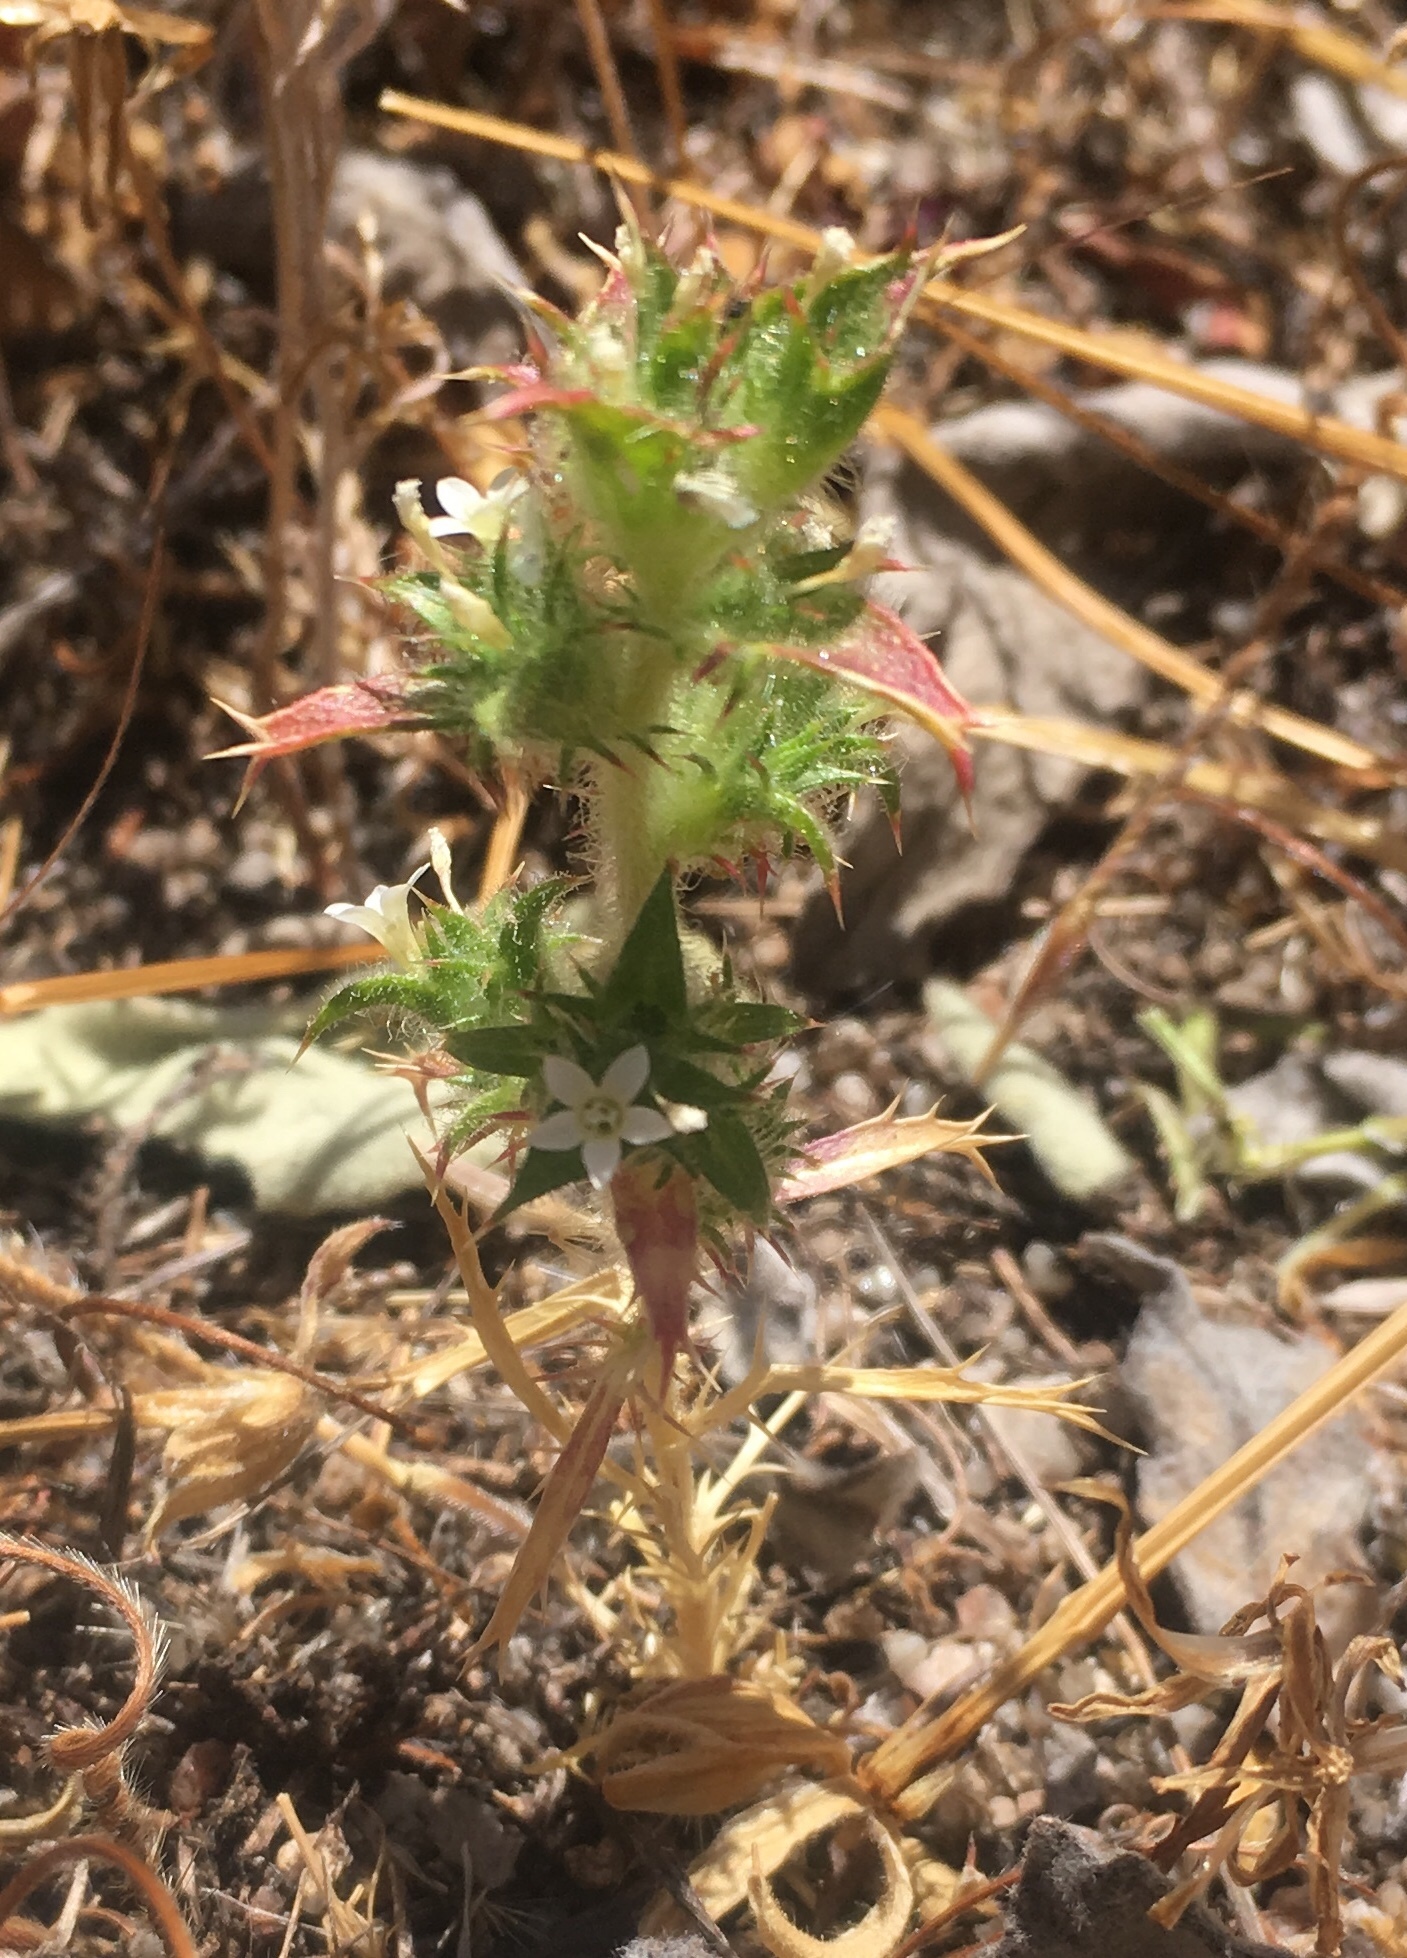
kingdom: Plantae
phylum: Tracheophyta
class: Magnoliopsida
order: Ericales
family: Polemoniaceae
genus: Navarretia
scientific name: Navarretia atractyloides
